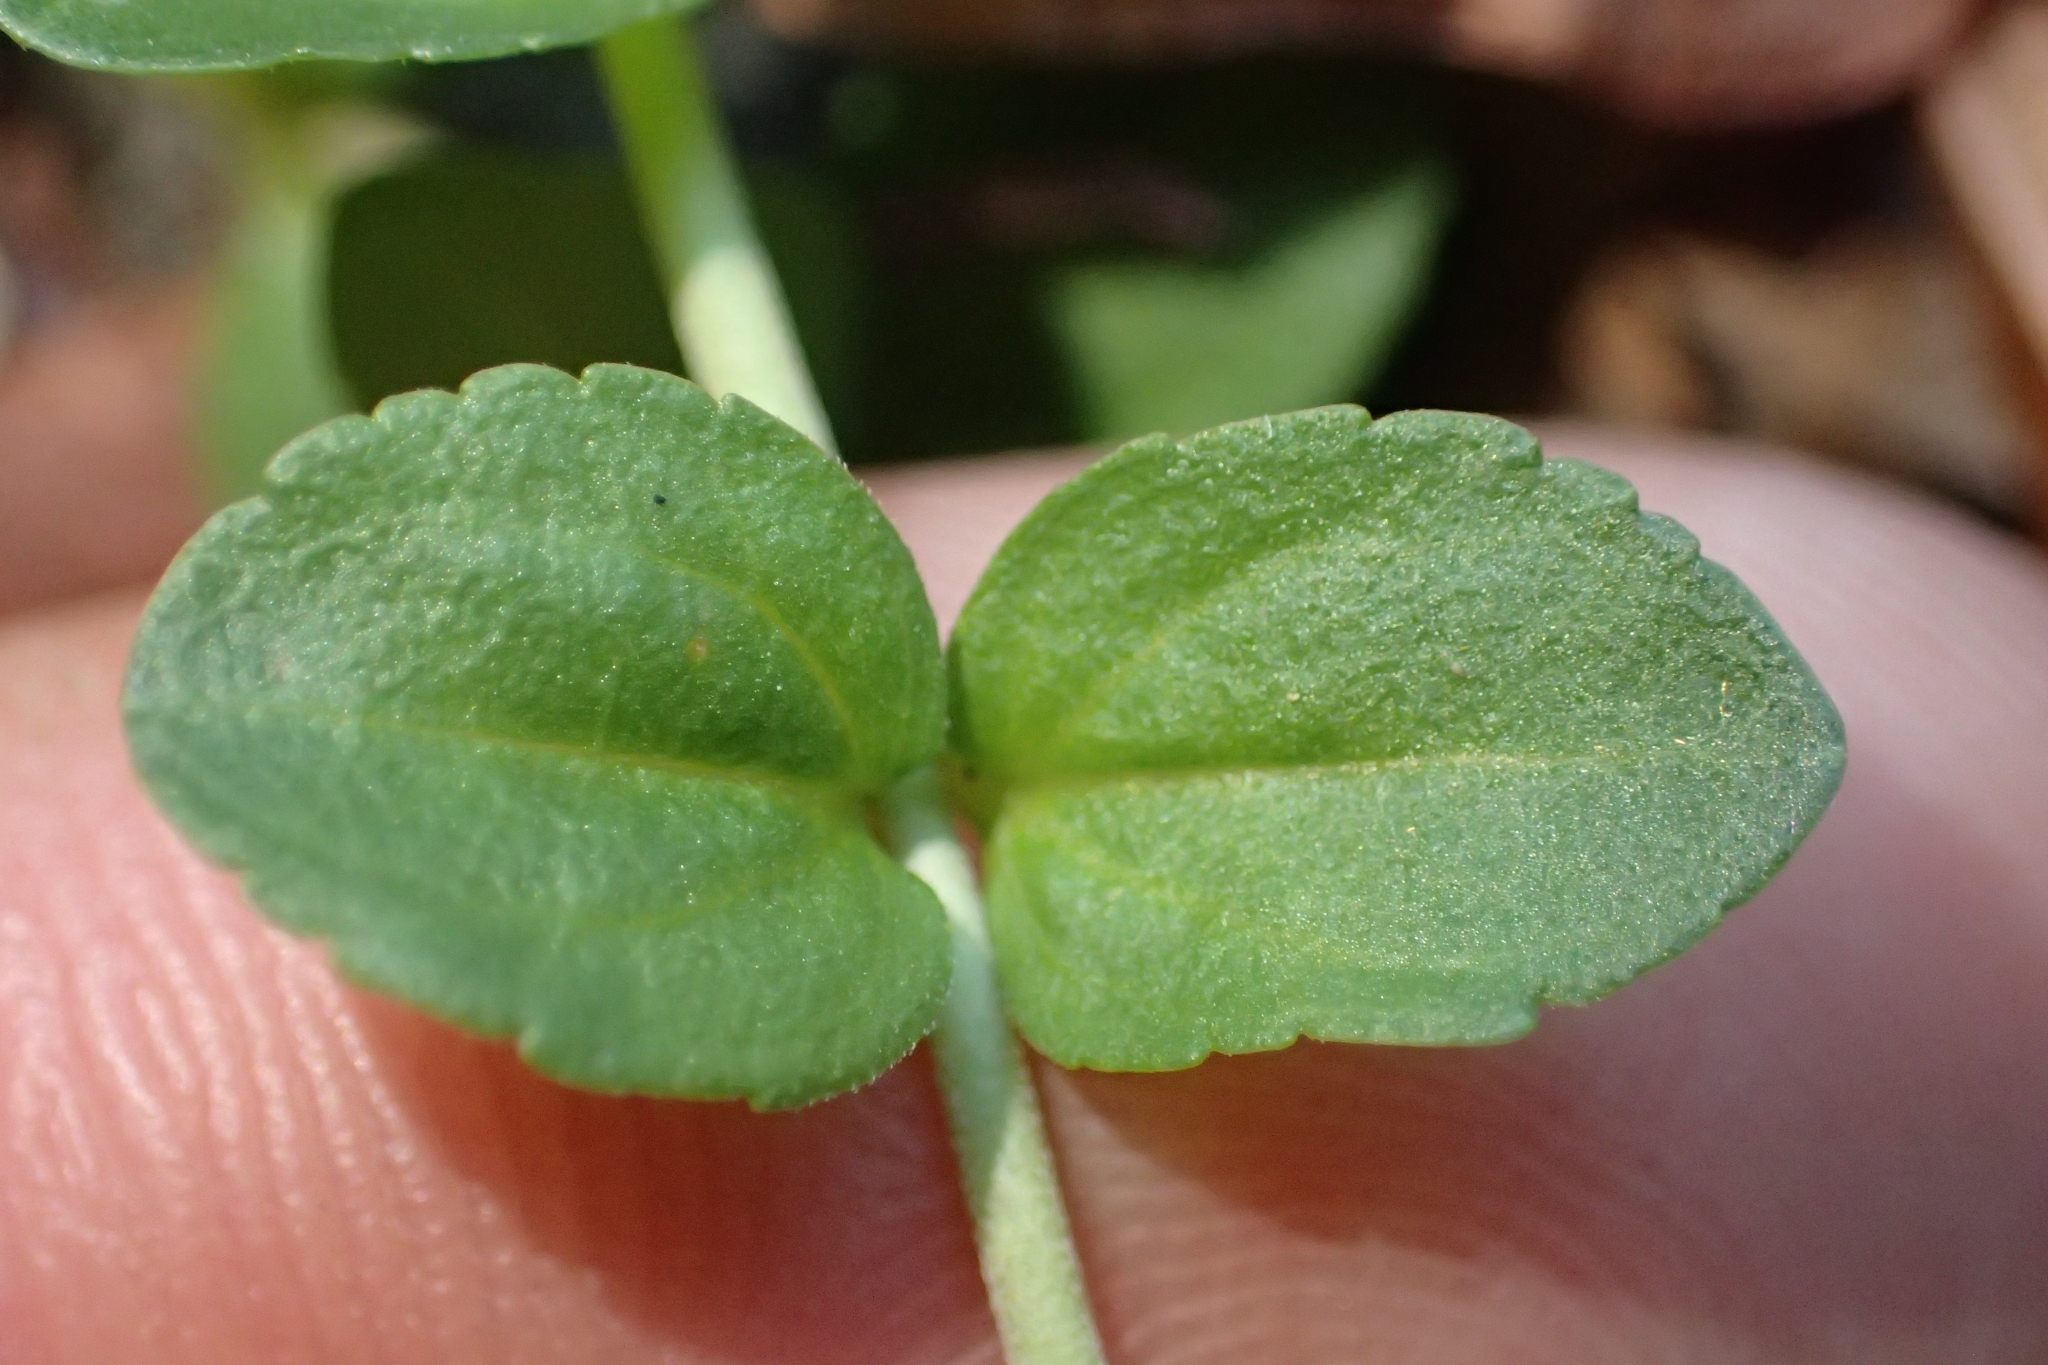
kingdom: Plantae
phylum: Tracheophyta
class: Magnoliopsida
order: Lamiales
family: Plantaginaceae
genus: Veronica
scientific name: Veronica serpyllifolia
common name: Thyme-leaved speedwell
